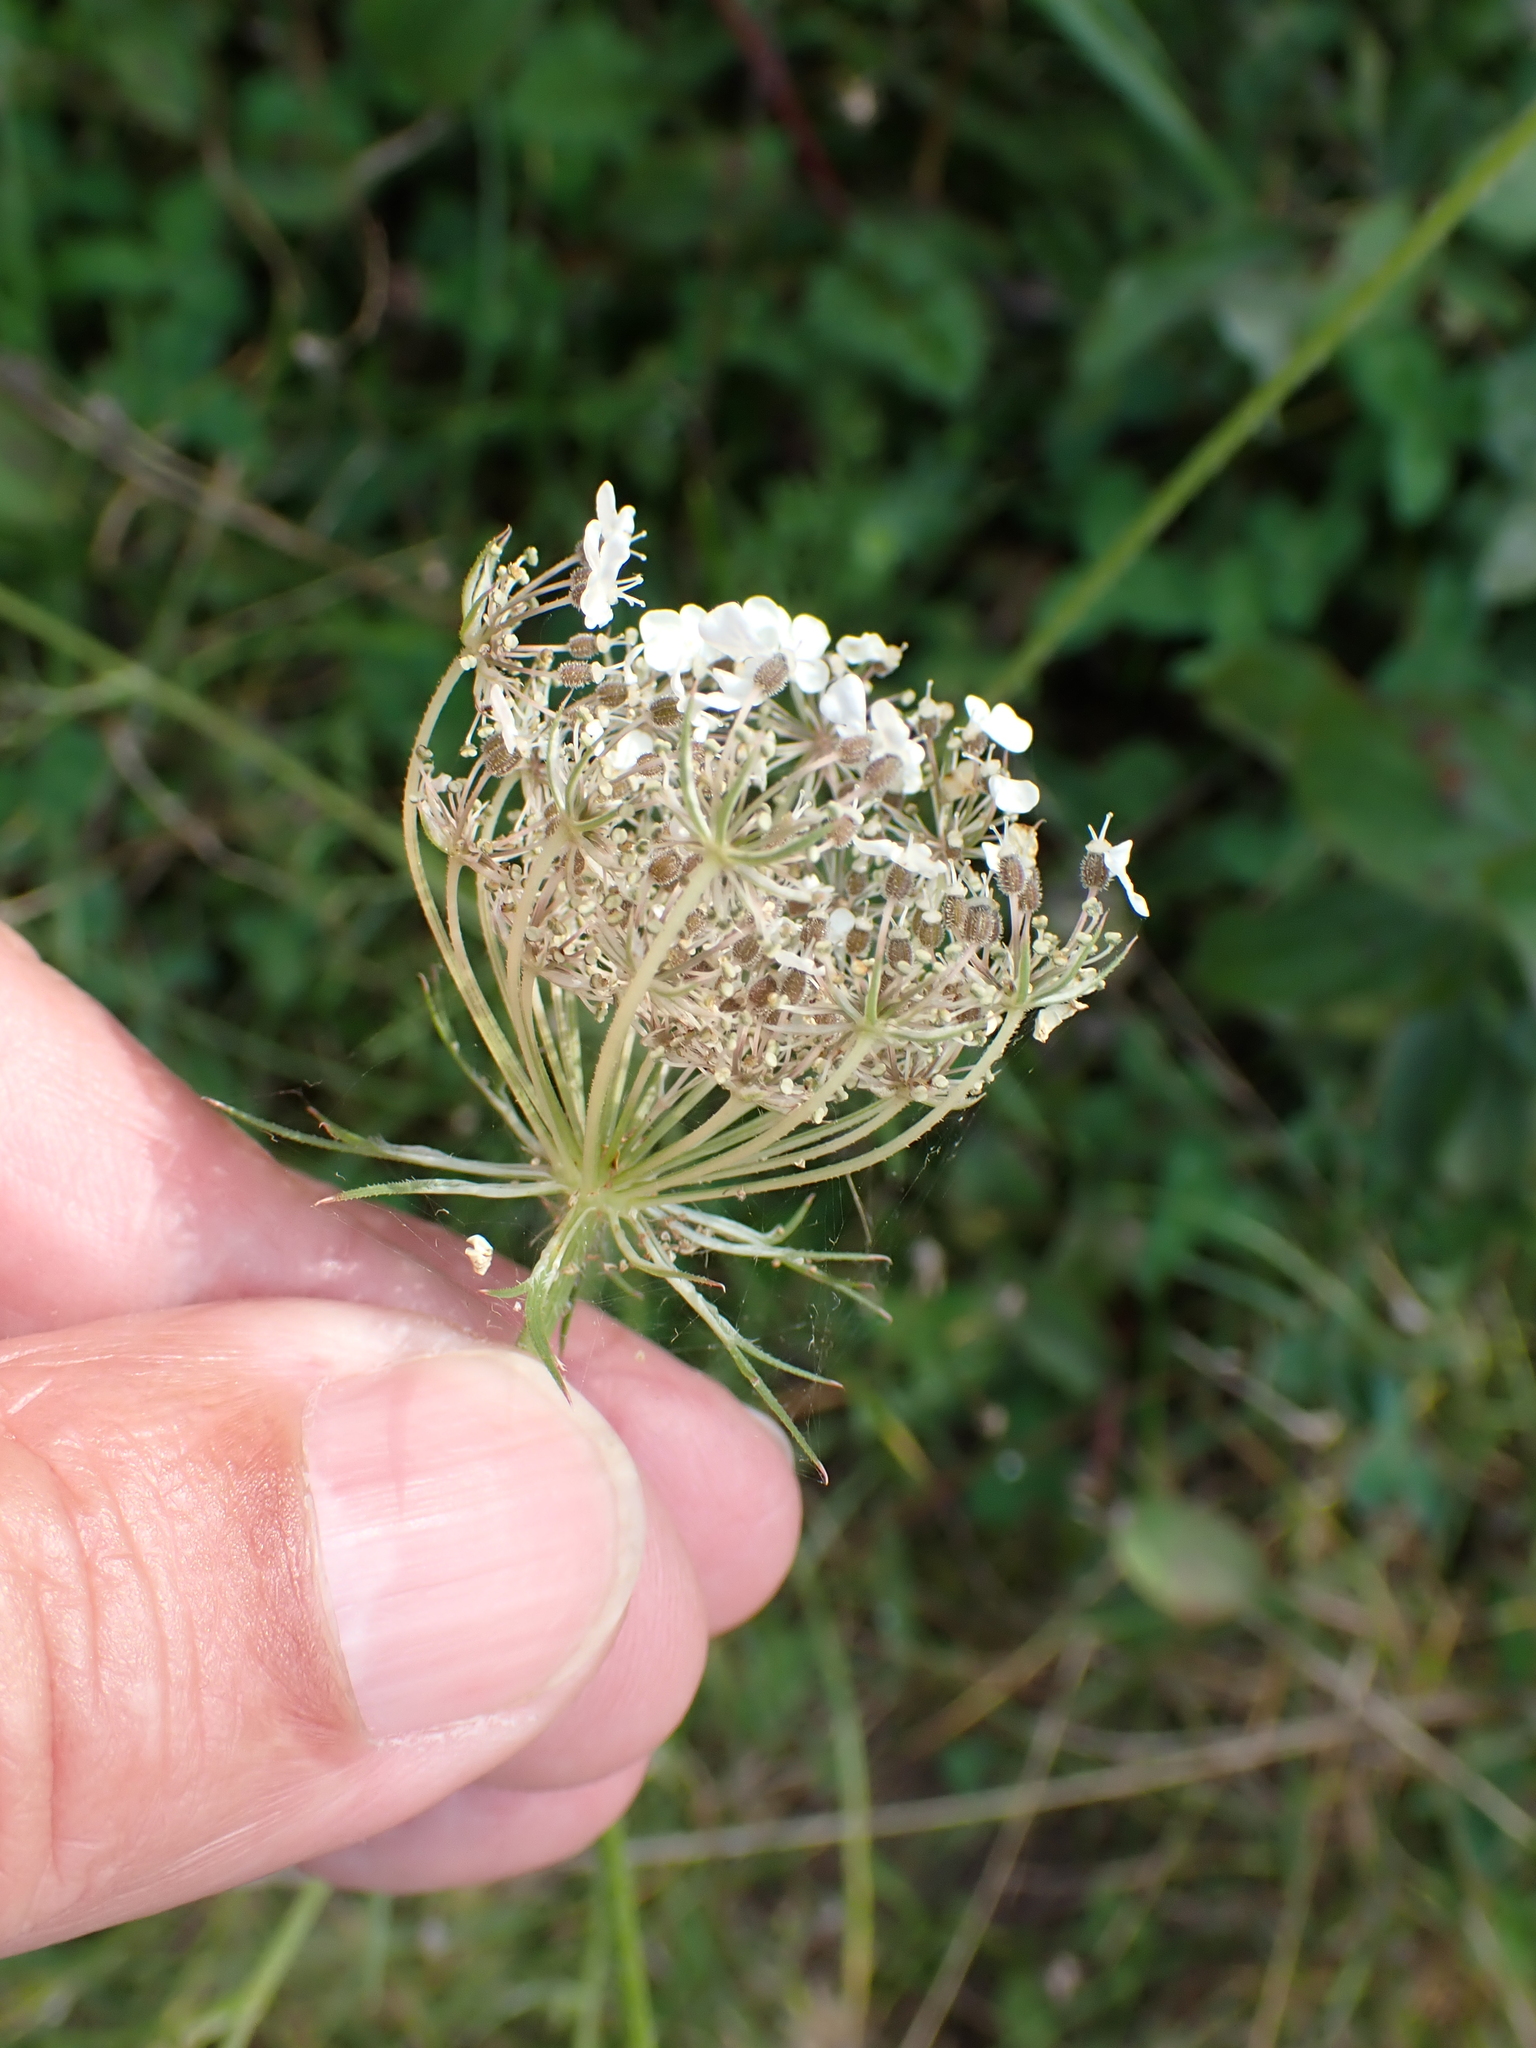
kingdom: Plantae
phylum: Tracheophyta
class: Magnoliopsida
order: Apiales
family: Apiaceae
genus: Daucus
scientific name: Daucus carota
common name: Wild carrot
